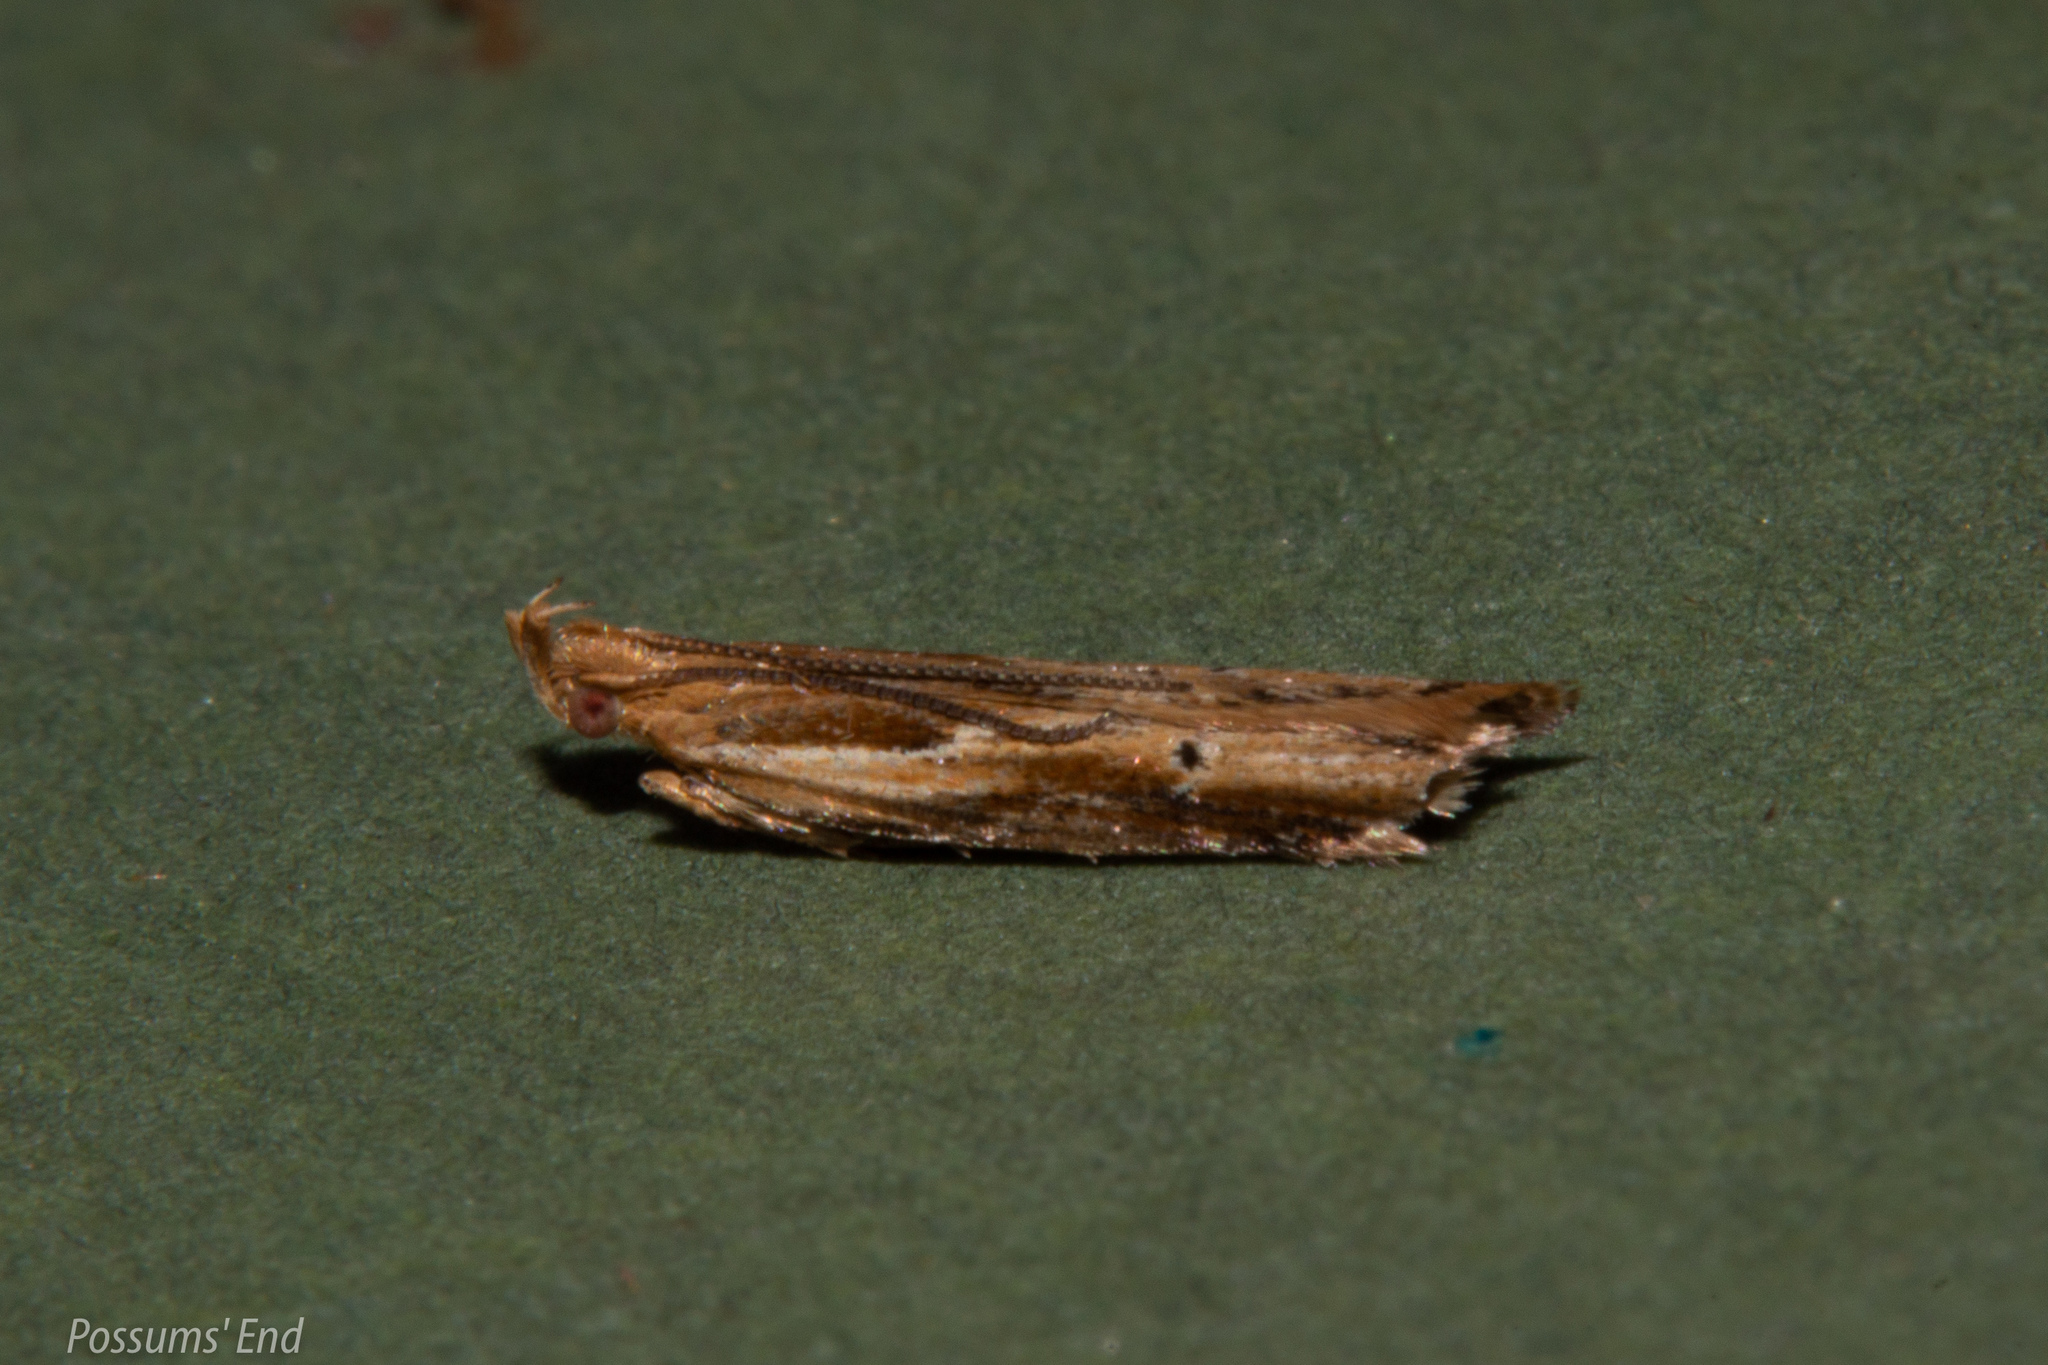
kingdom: Animalia
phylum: Arthropoda
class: Insecta
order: Lepidoptera
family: Depressariidae
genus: Eutorna
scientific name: Eutorna symmorpha
